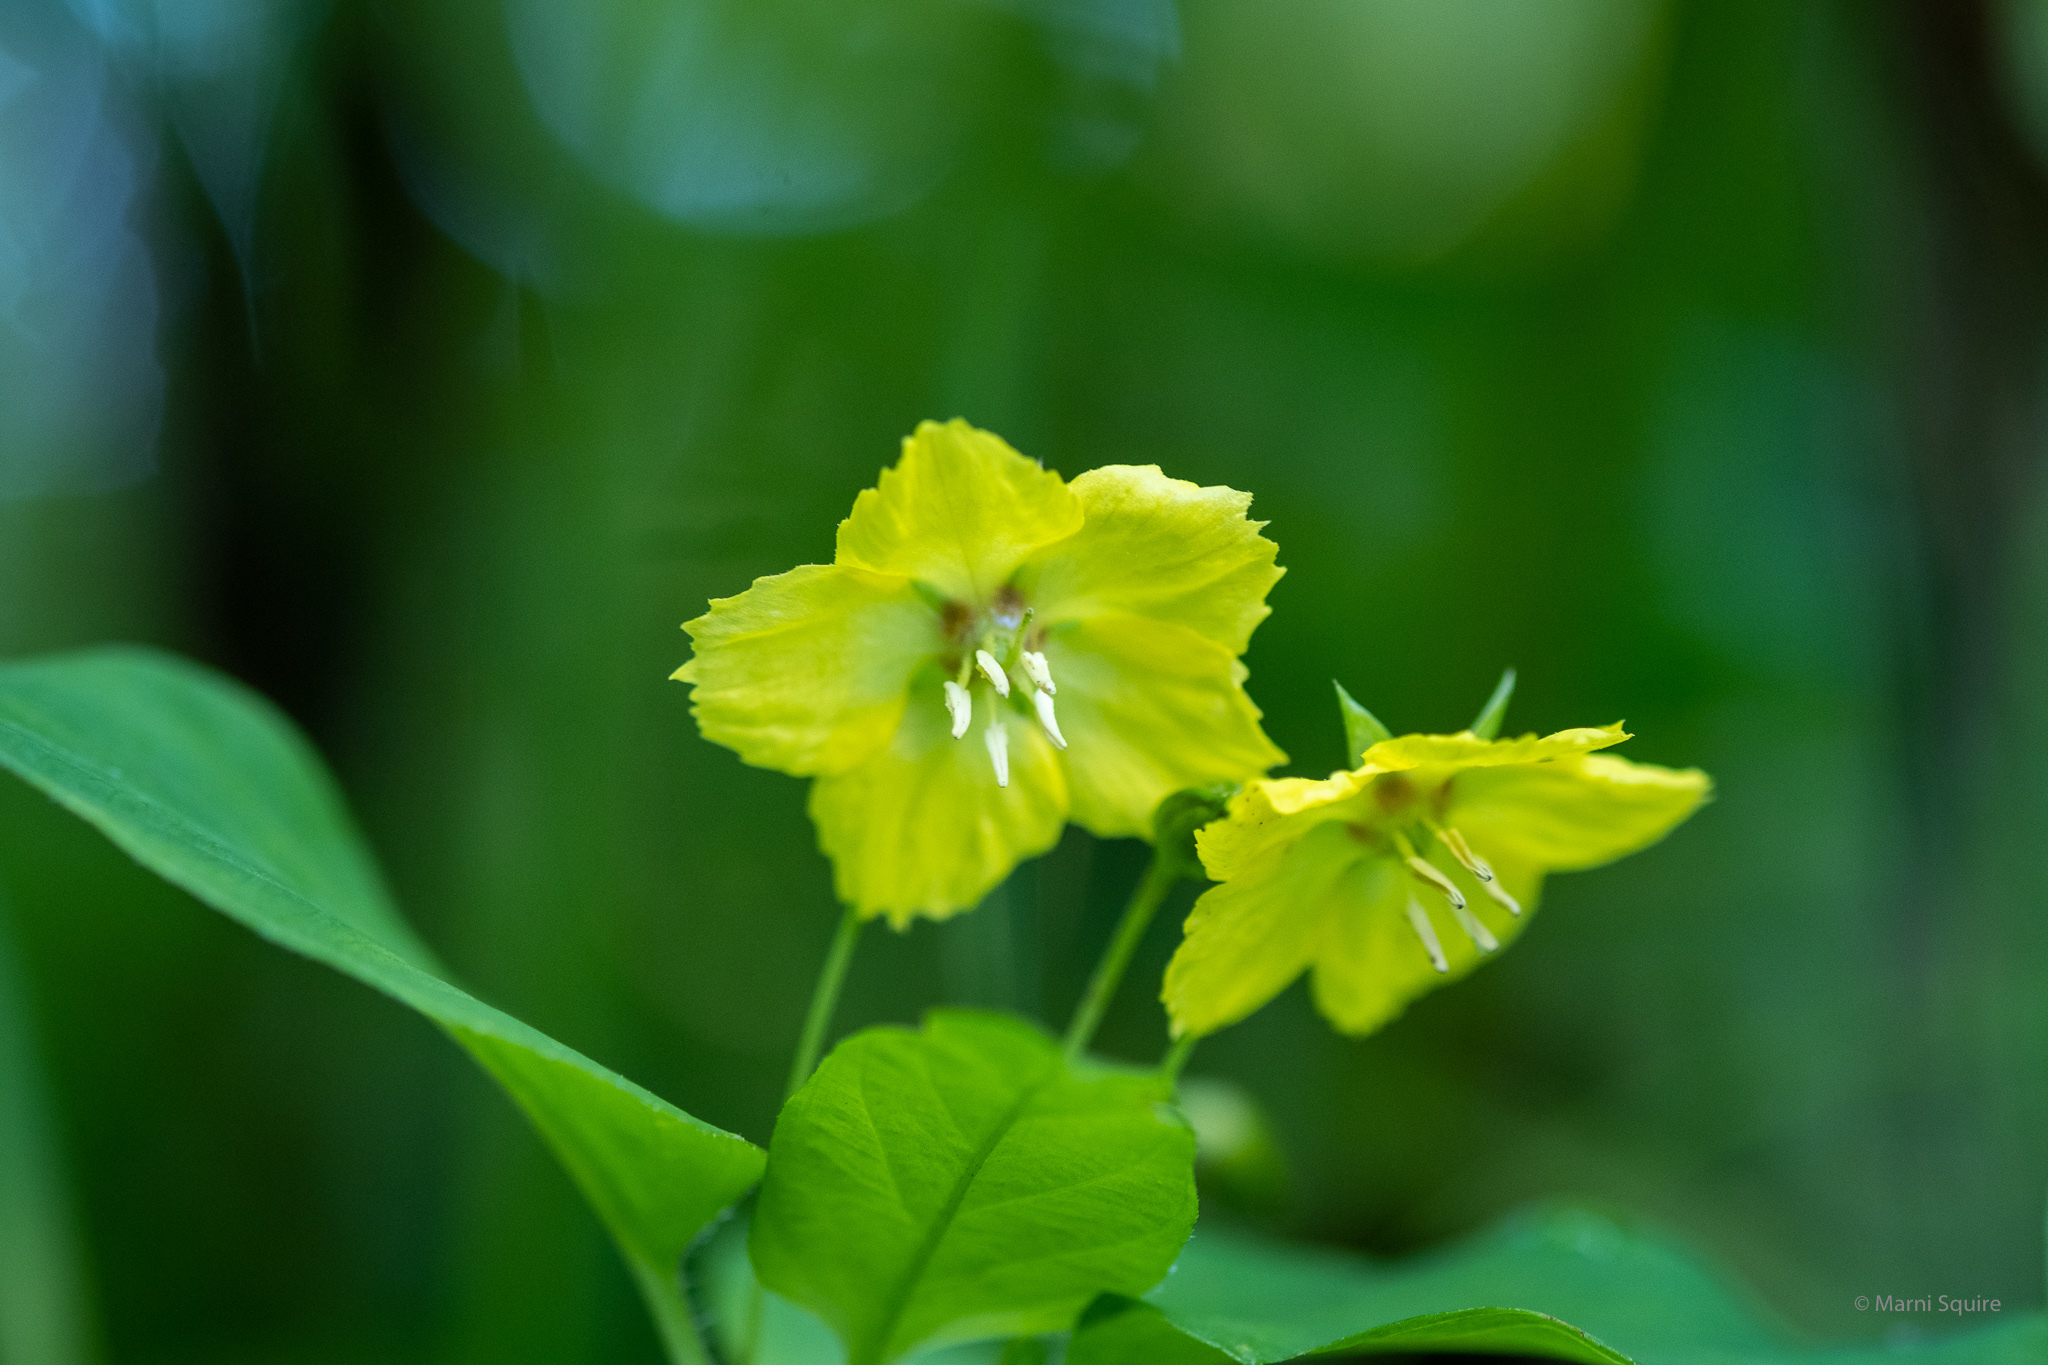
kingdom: Plantae
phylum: Tracheophyta
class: Magnoliopsida
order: Ericales
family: Primulaceae
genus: Lysimachia
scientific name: Lysimachia ciliata
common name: Fringed loosestrife
